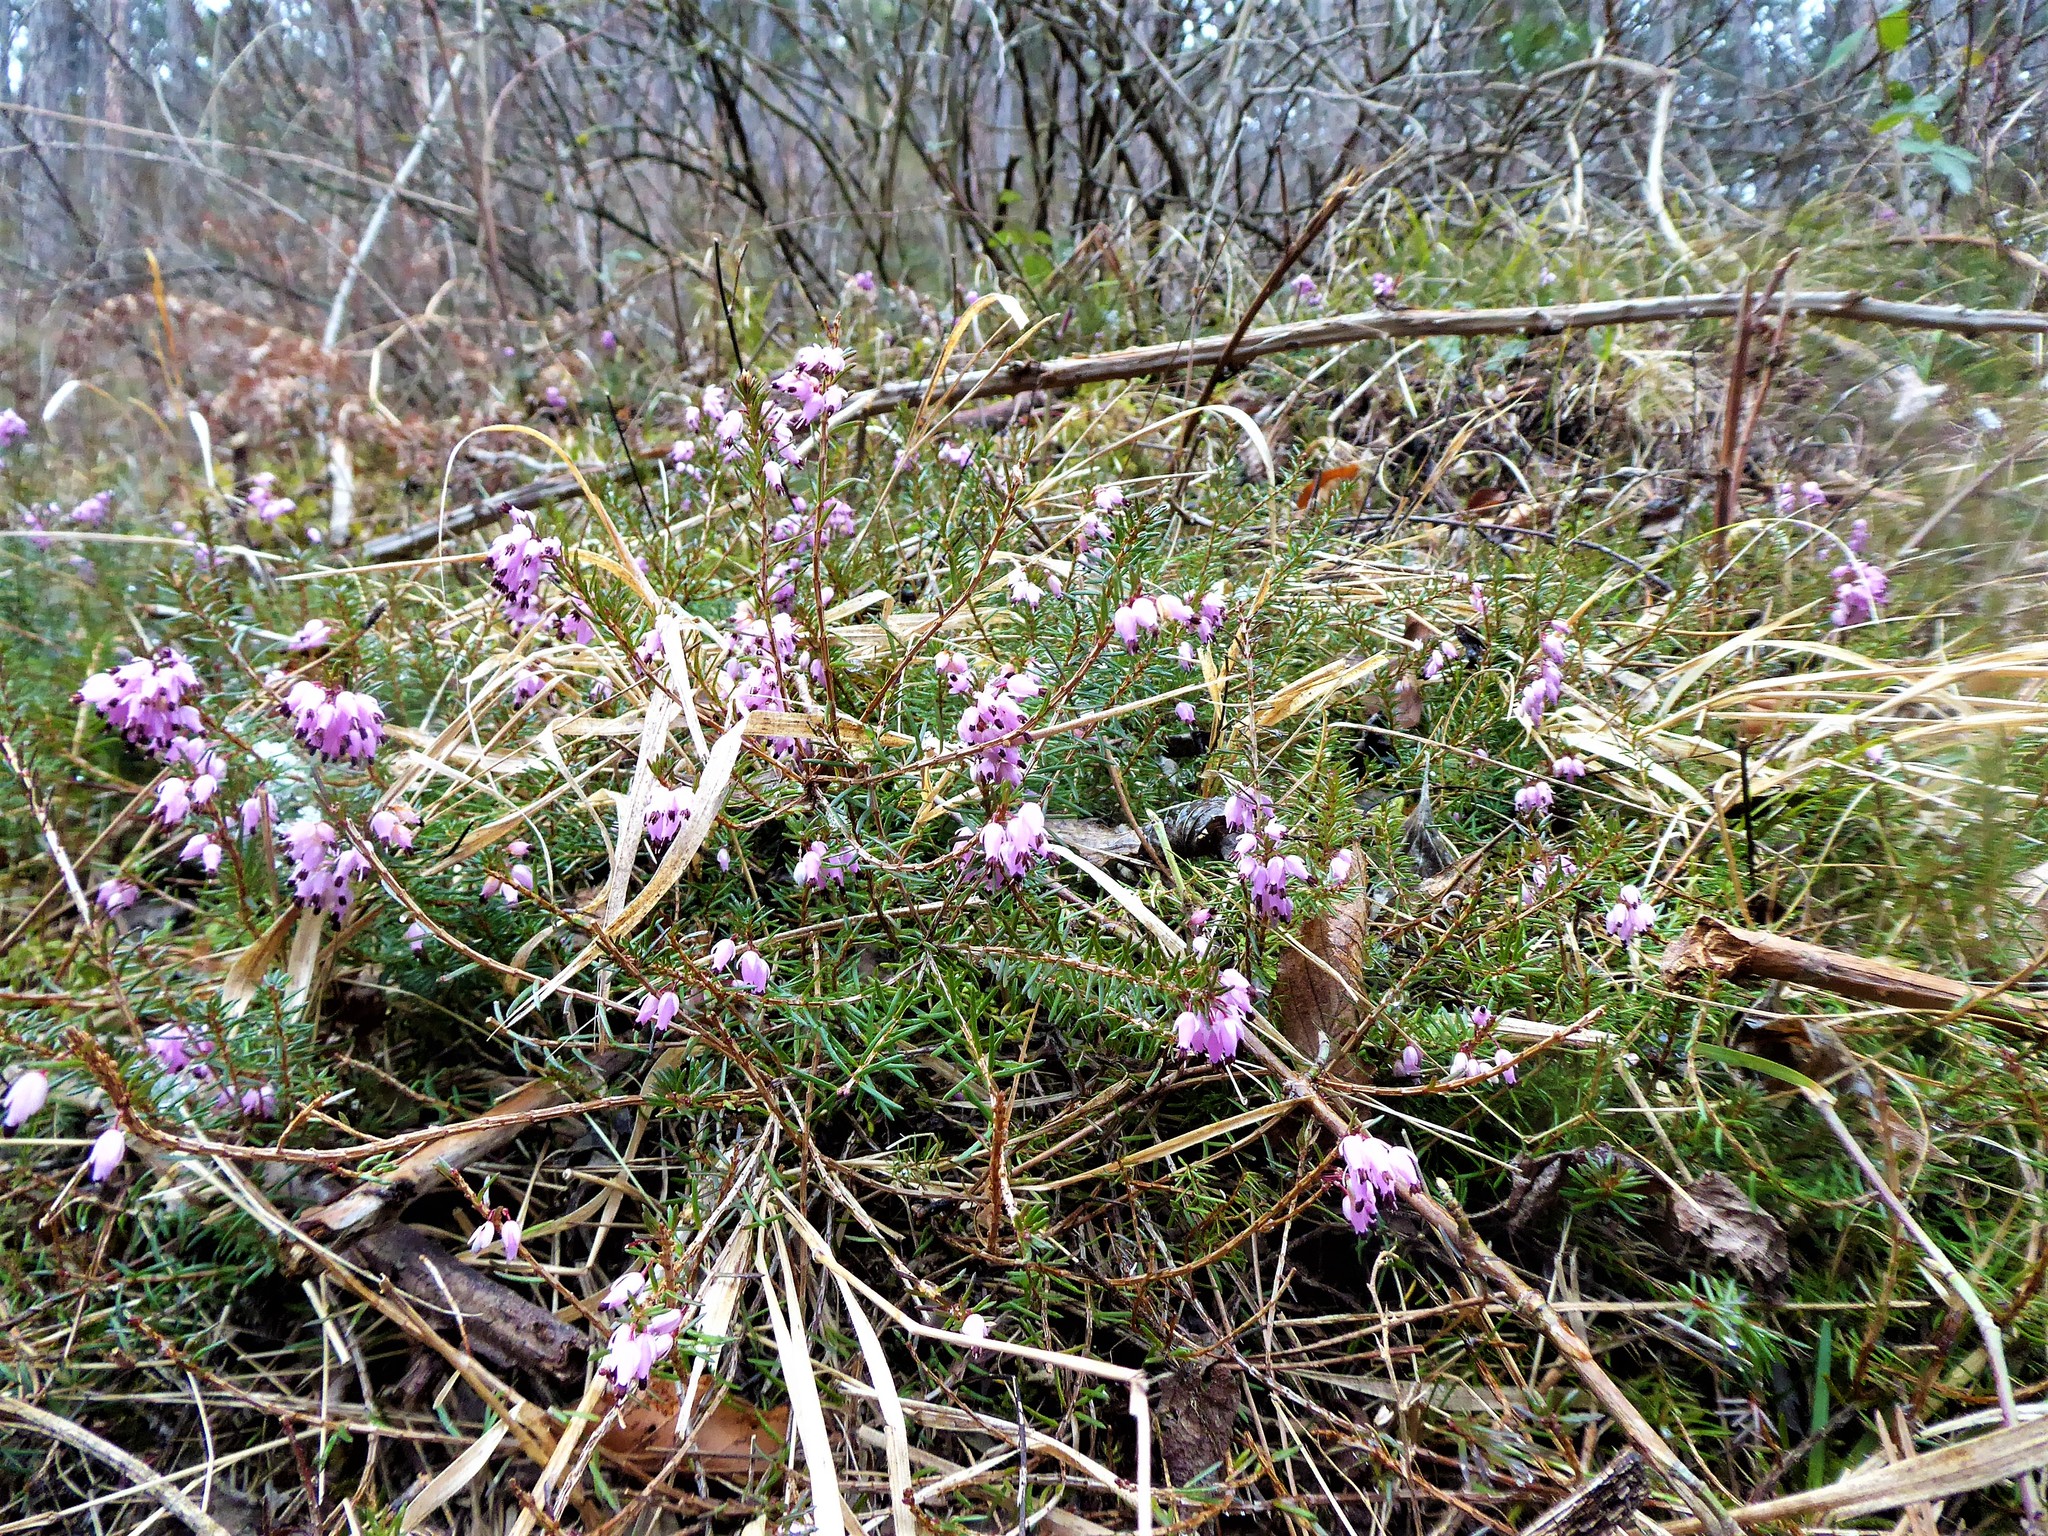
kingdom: Plantae
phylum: Tracheophyta
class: Magnoliopsida
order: Ericales
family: Ericaceae
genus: Erica
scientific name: Erica carnea
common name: Winter heath
